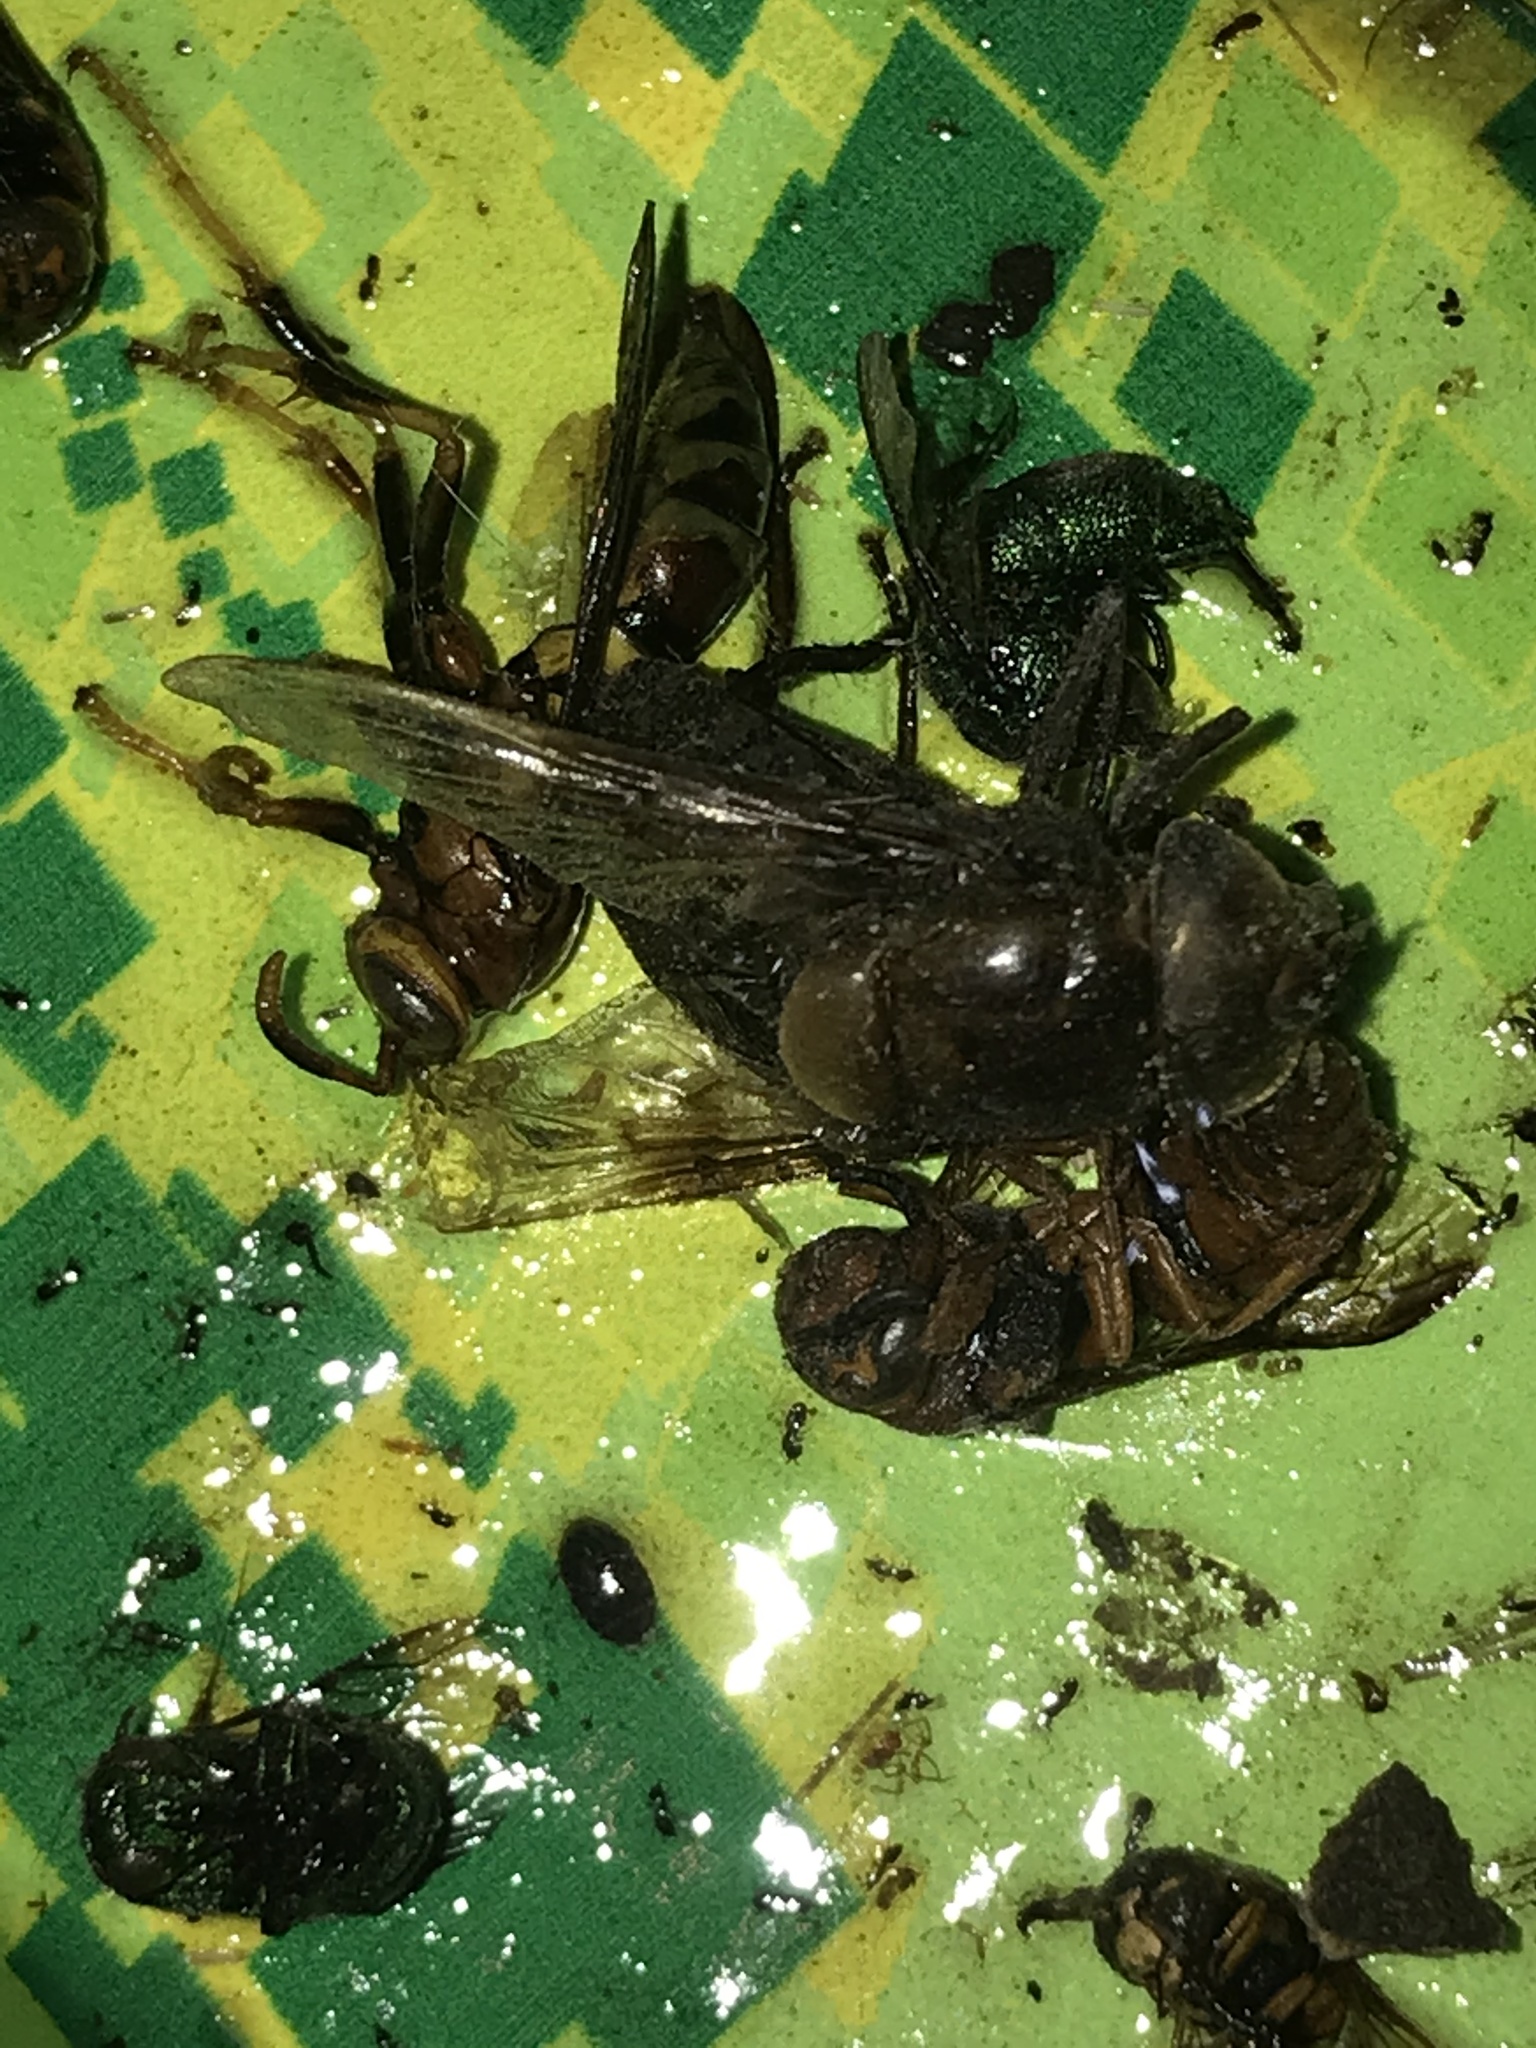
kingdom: Animalia
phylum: Arthropoda
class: Insecta
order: Diptera
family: Syrphidae
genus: Copestylum
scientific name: Copestylum mexicanum
